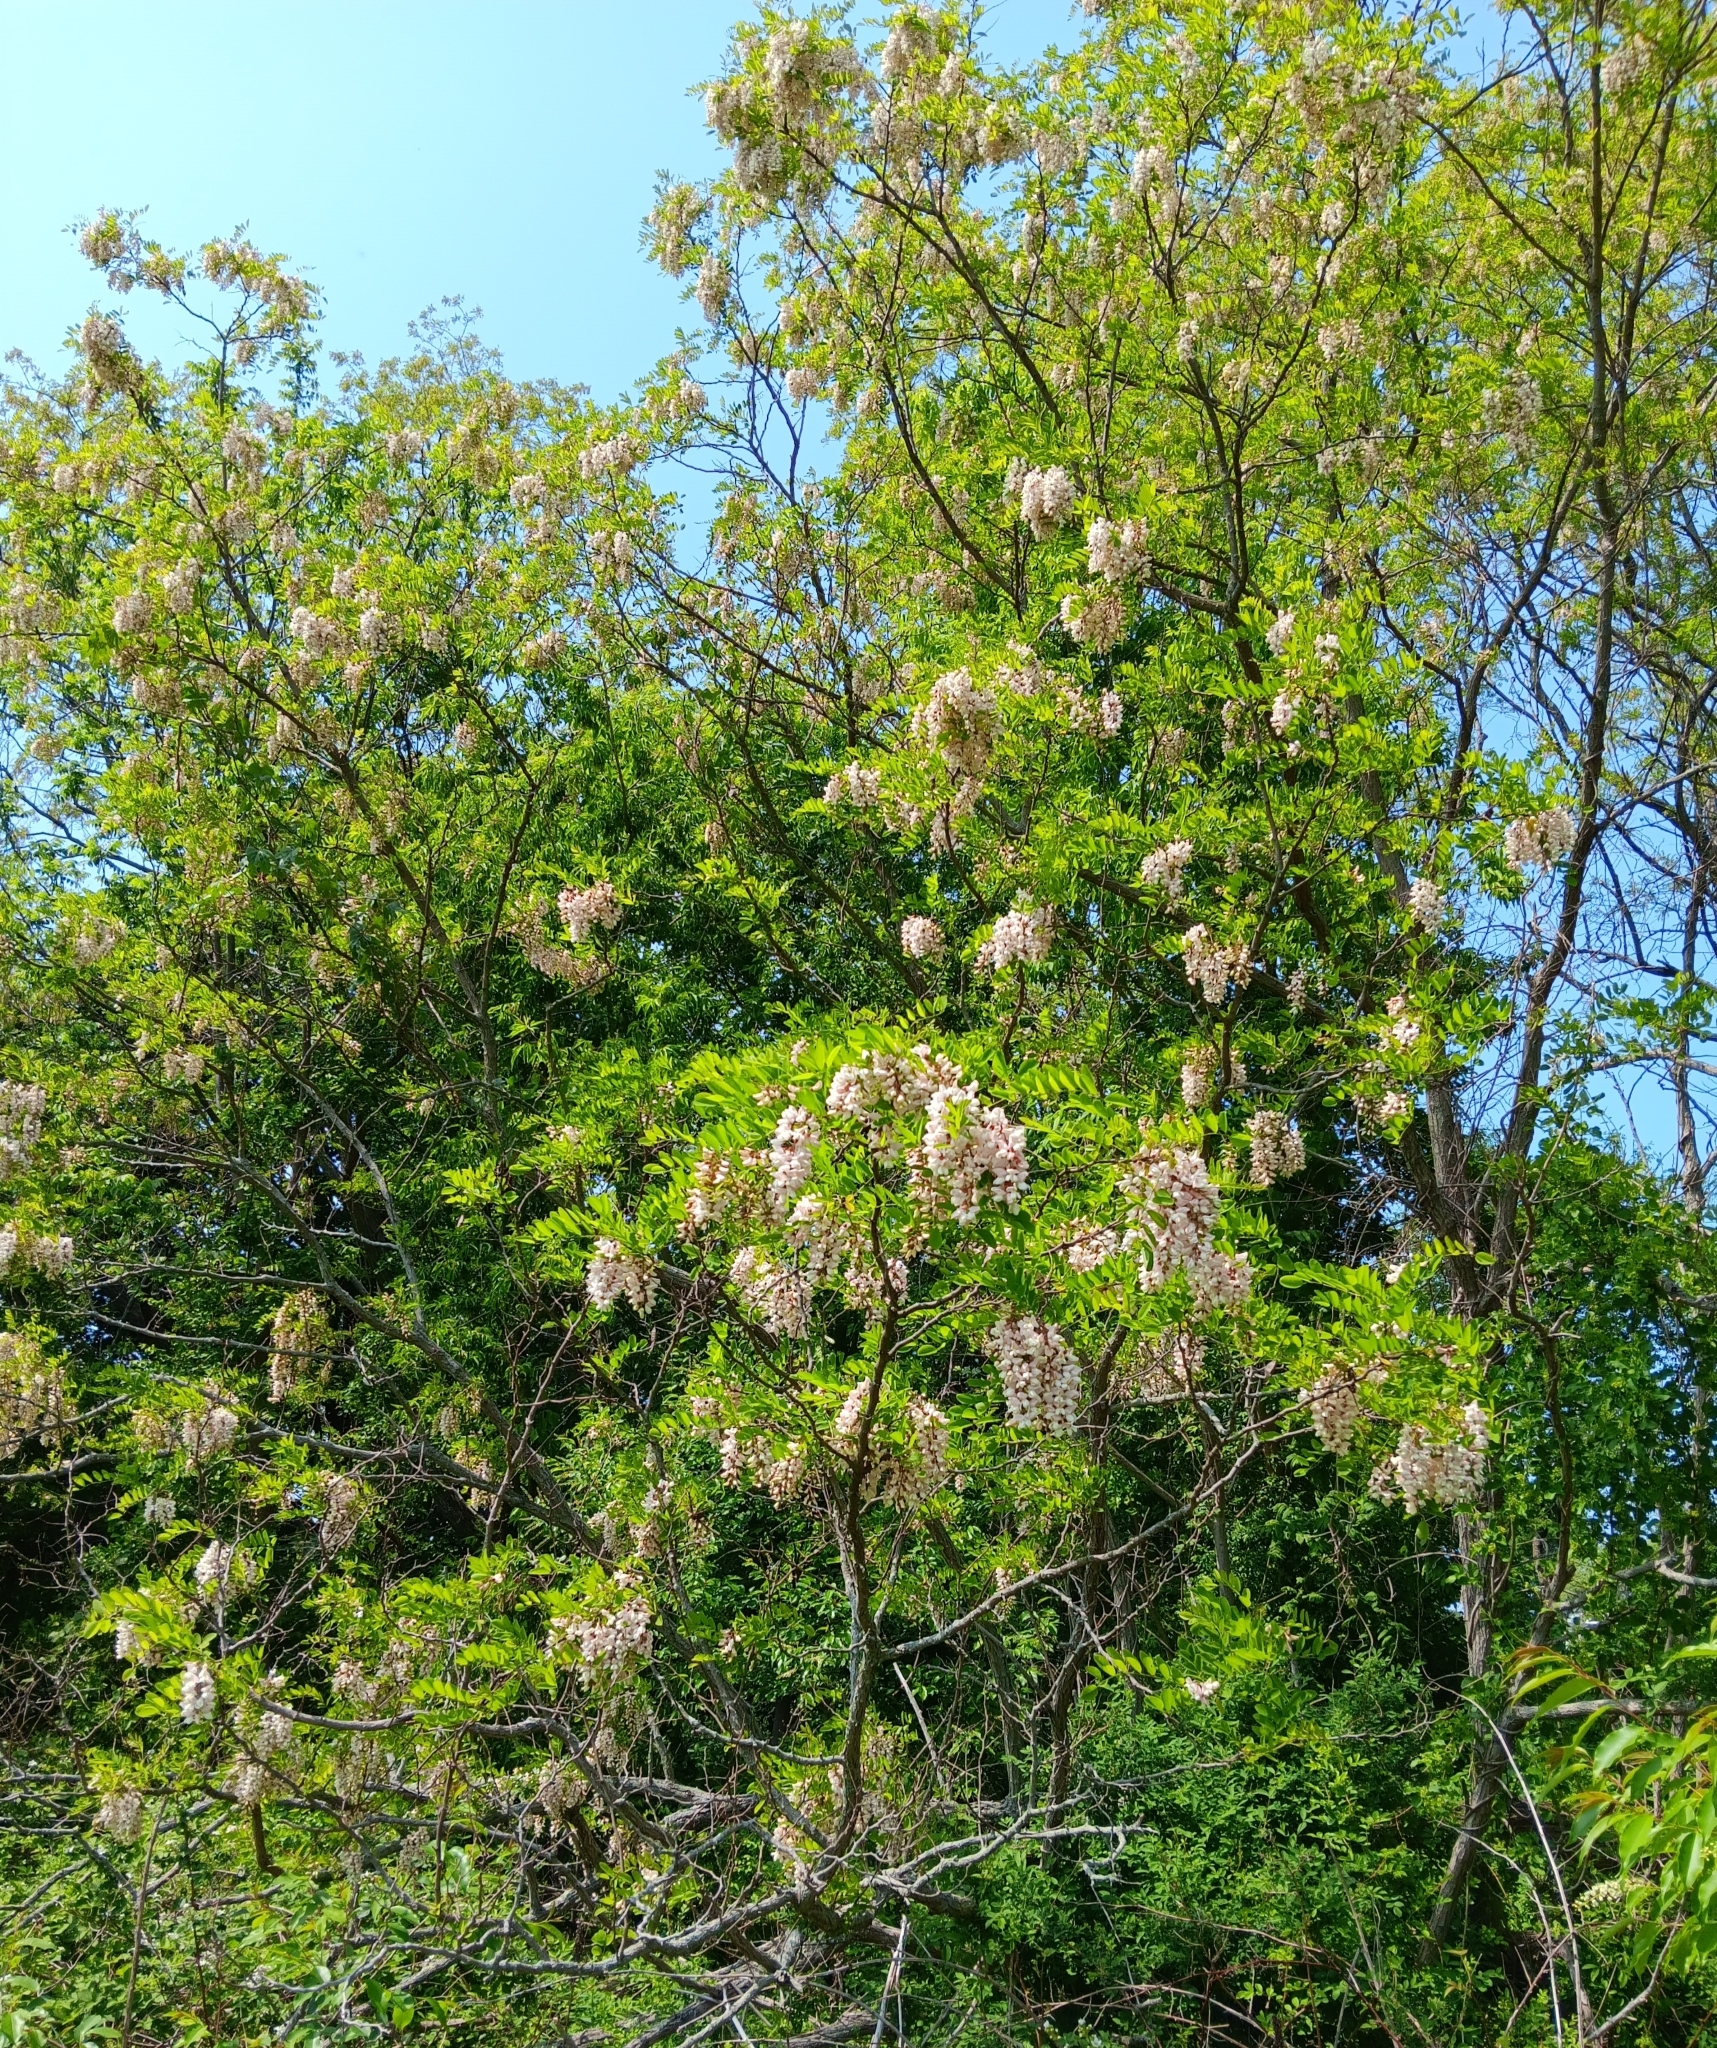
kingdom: Plantae
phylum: Tracheophyta
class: Magnoliopsida
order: Fabales
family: Fabaceae
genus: Robinia
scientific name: Robinia pseudoacacia
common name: Black locust
